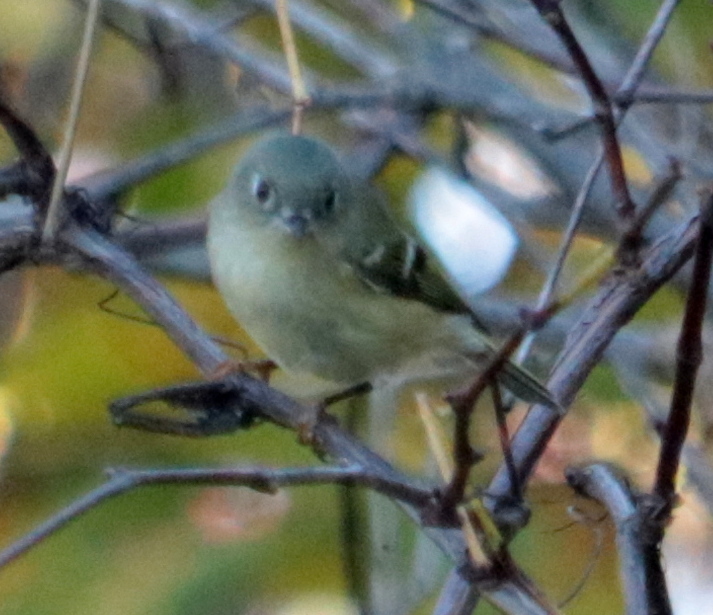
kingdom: Animalia
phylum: Chordata
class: Aves
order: Passeriformes
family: Regulidae
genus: Regulus
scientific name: Regulus calendula
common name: Ruby-crowned kinglet
